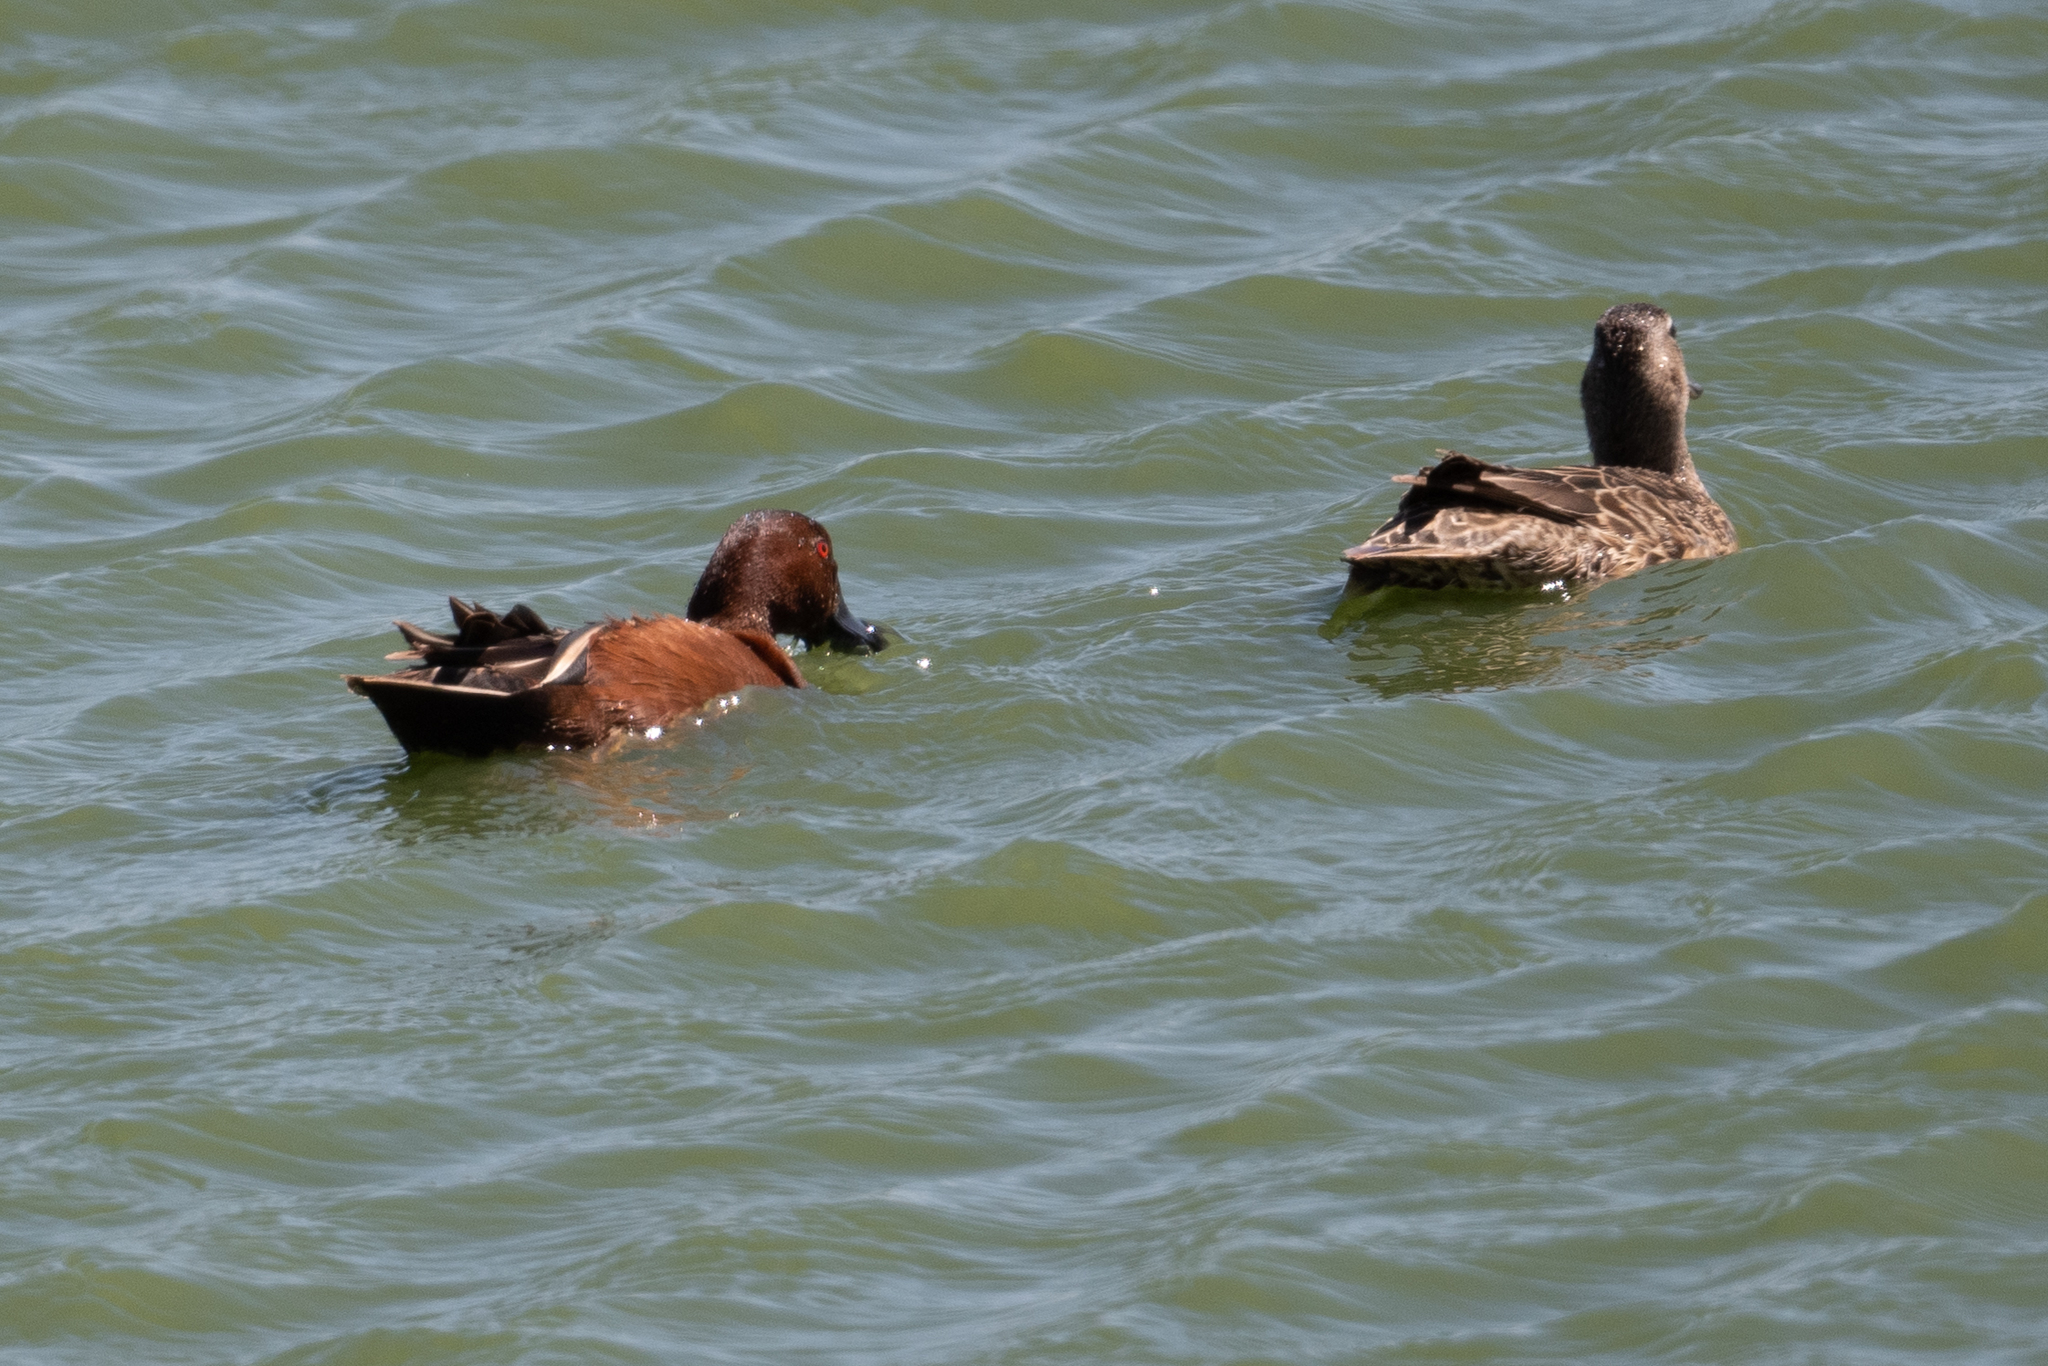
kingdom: Animalia
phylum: Chordata
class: Aves
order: Anseriformes
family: Anatidae
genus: Spatula
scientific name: Spatula cyanoptera
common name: Cinnamon teal
